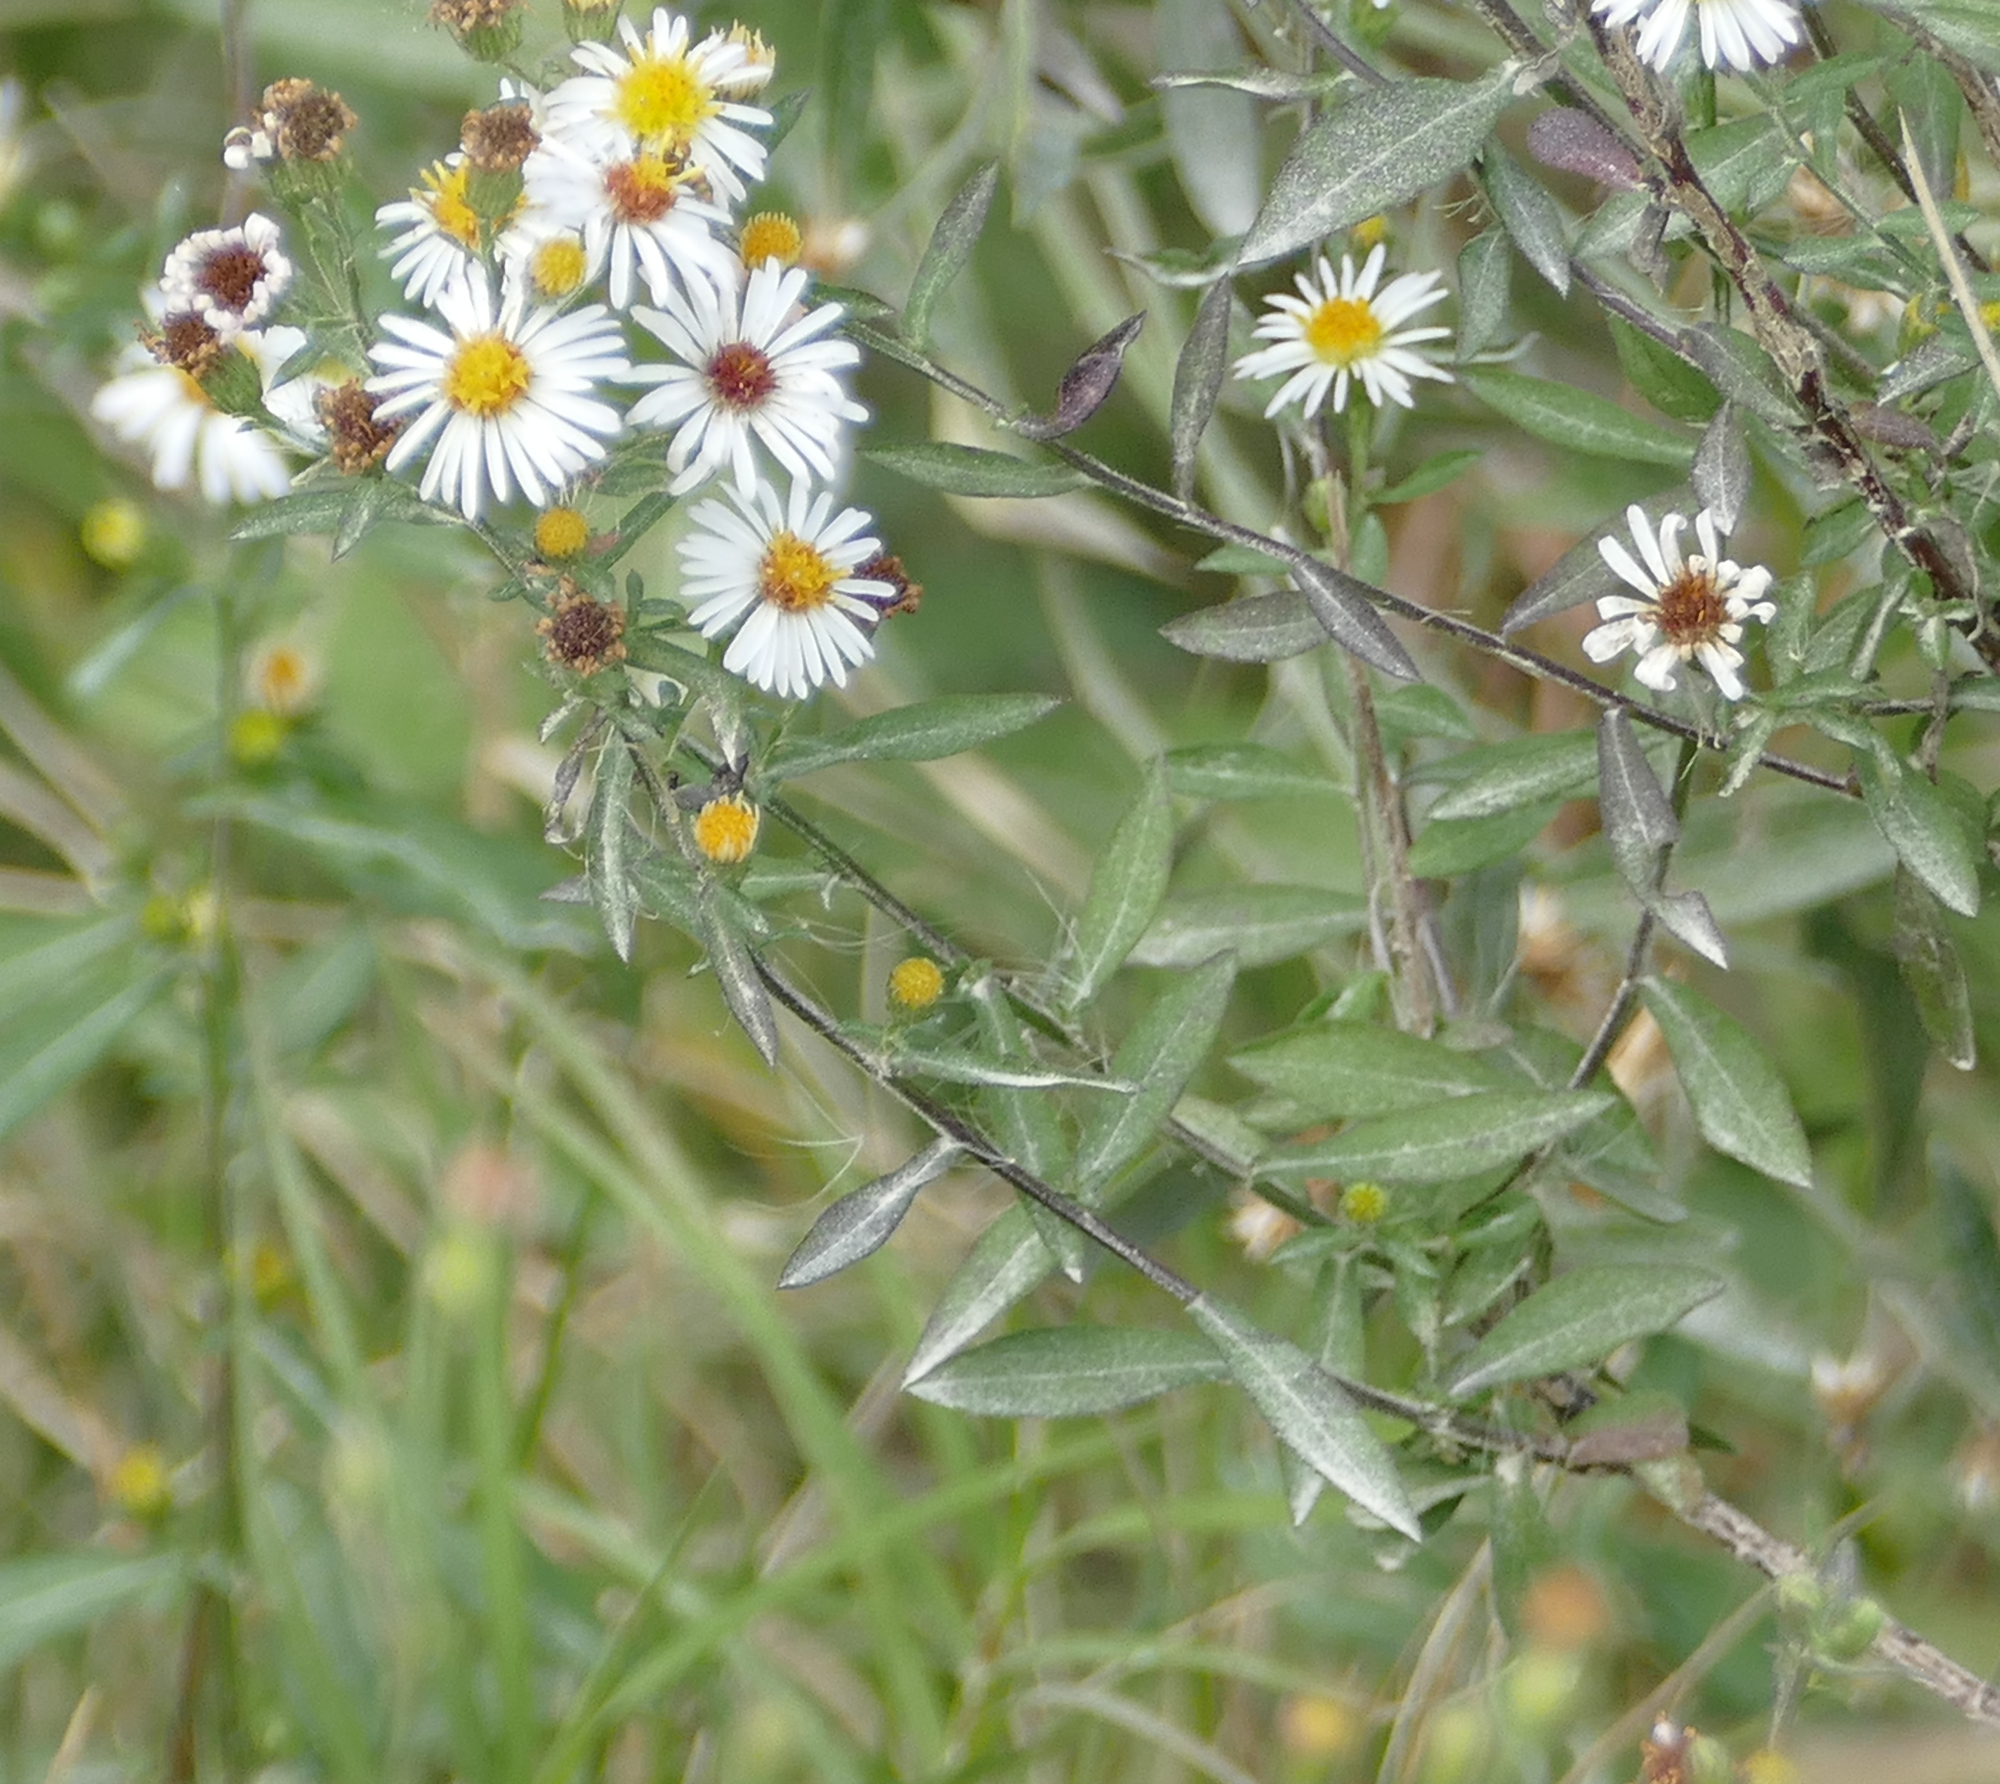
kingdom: Plantae
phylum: Tracheophyta
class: Magnoliopsida
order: Asterales
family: Asteraceae
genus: Symphyotrichum
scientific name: Symphyotrichum lanceolatum
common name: Panicled aster
